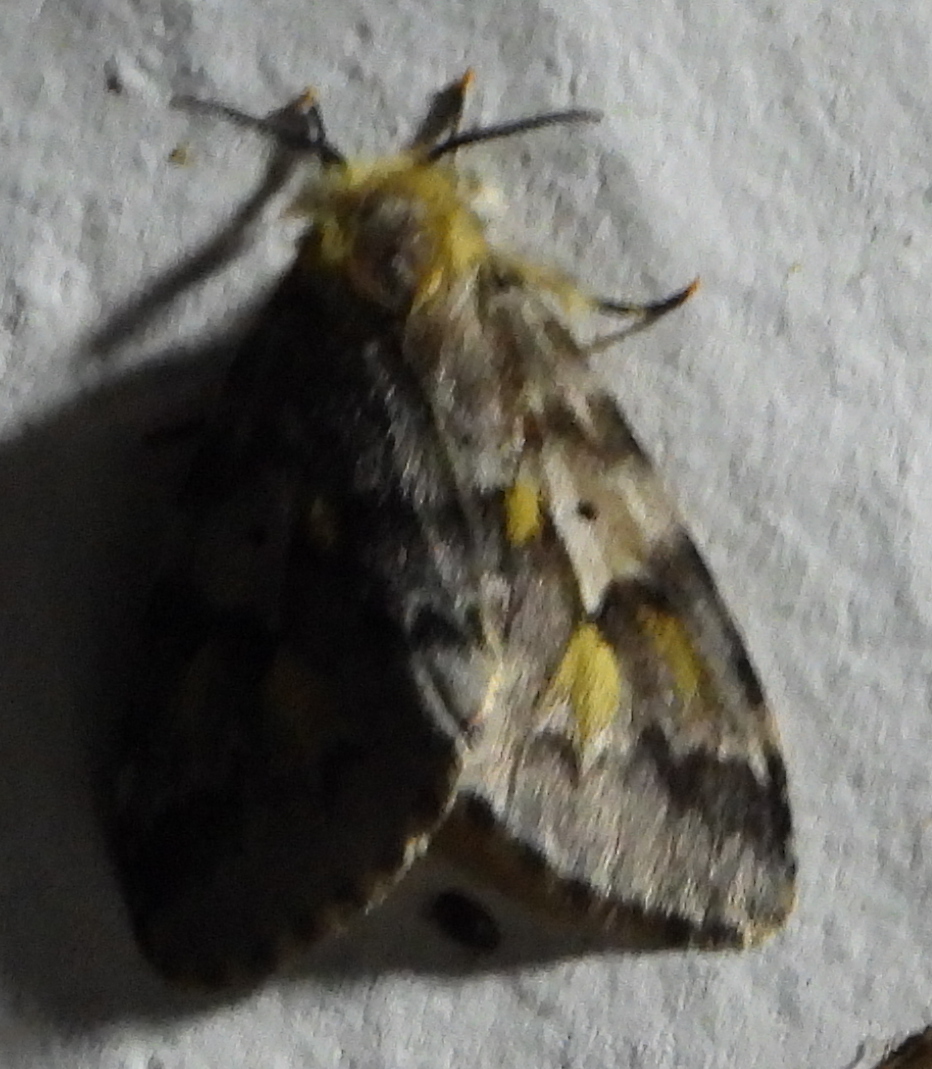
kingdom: Animalia
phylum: Arthropoda
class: Insecta
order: Lepidoptera
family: Erebidae
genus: Rhypopteryx
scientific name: Rhypopteryx flavinotata
